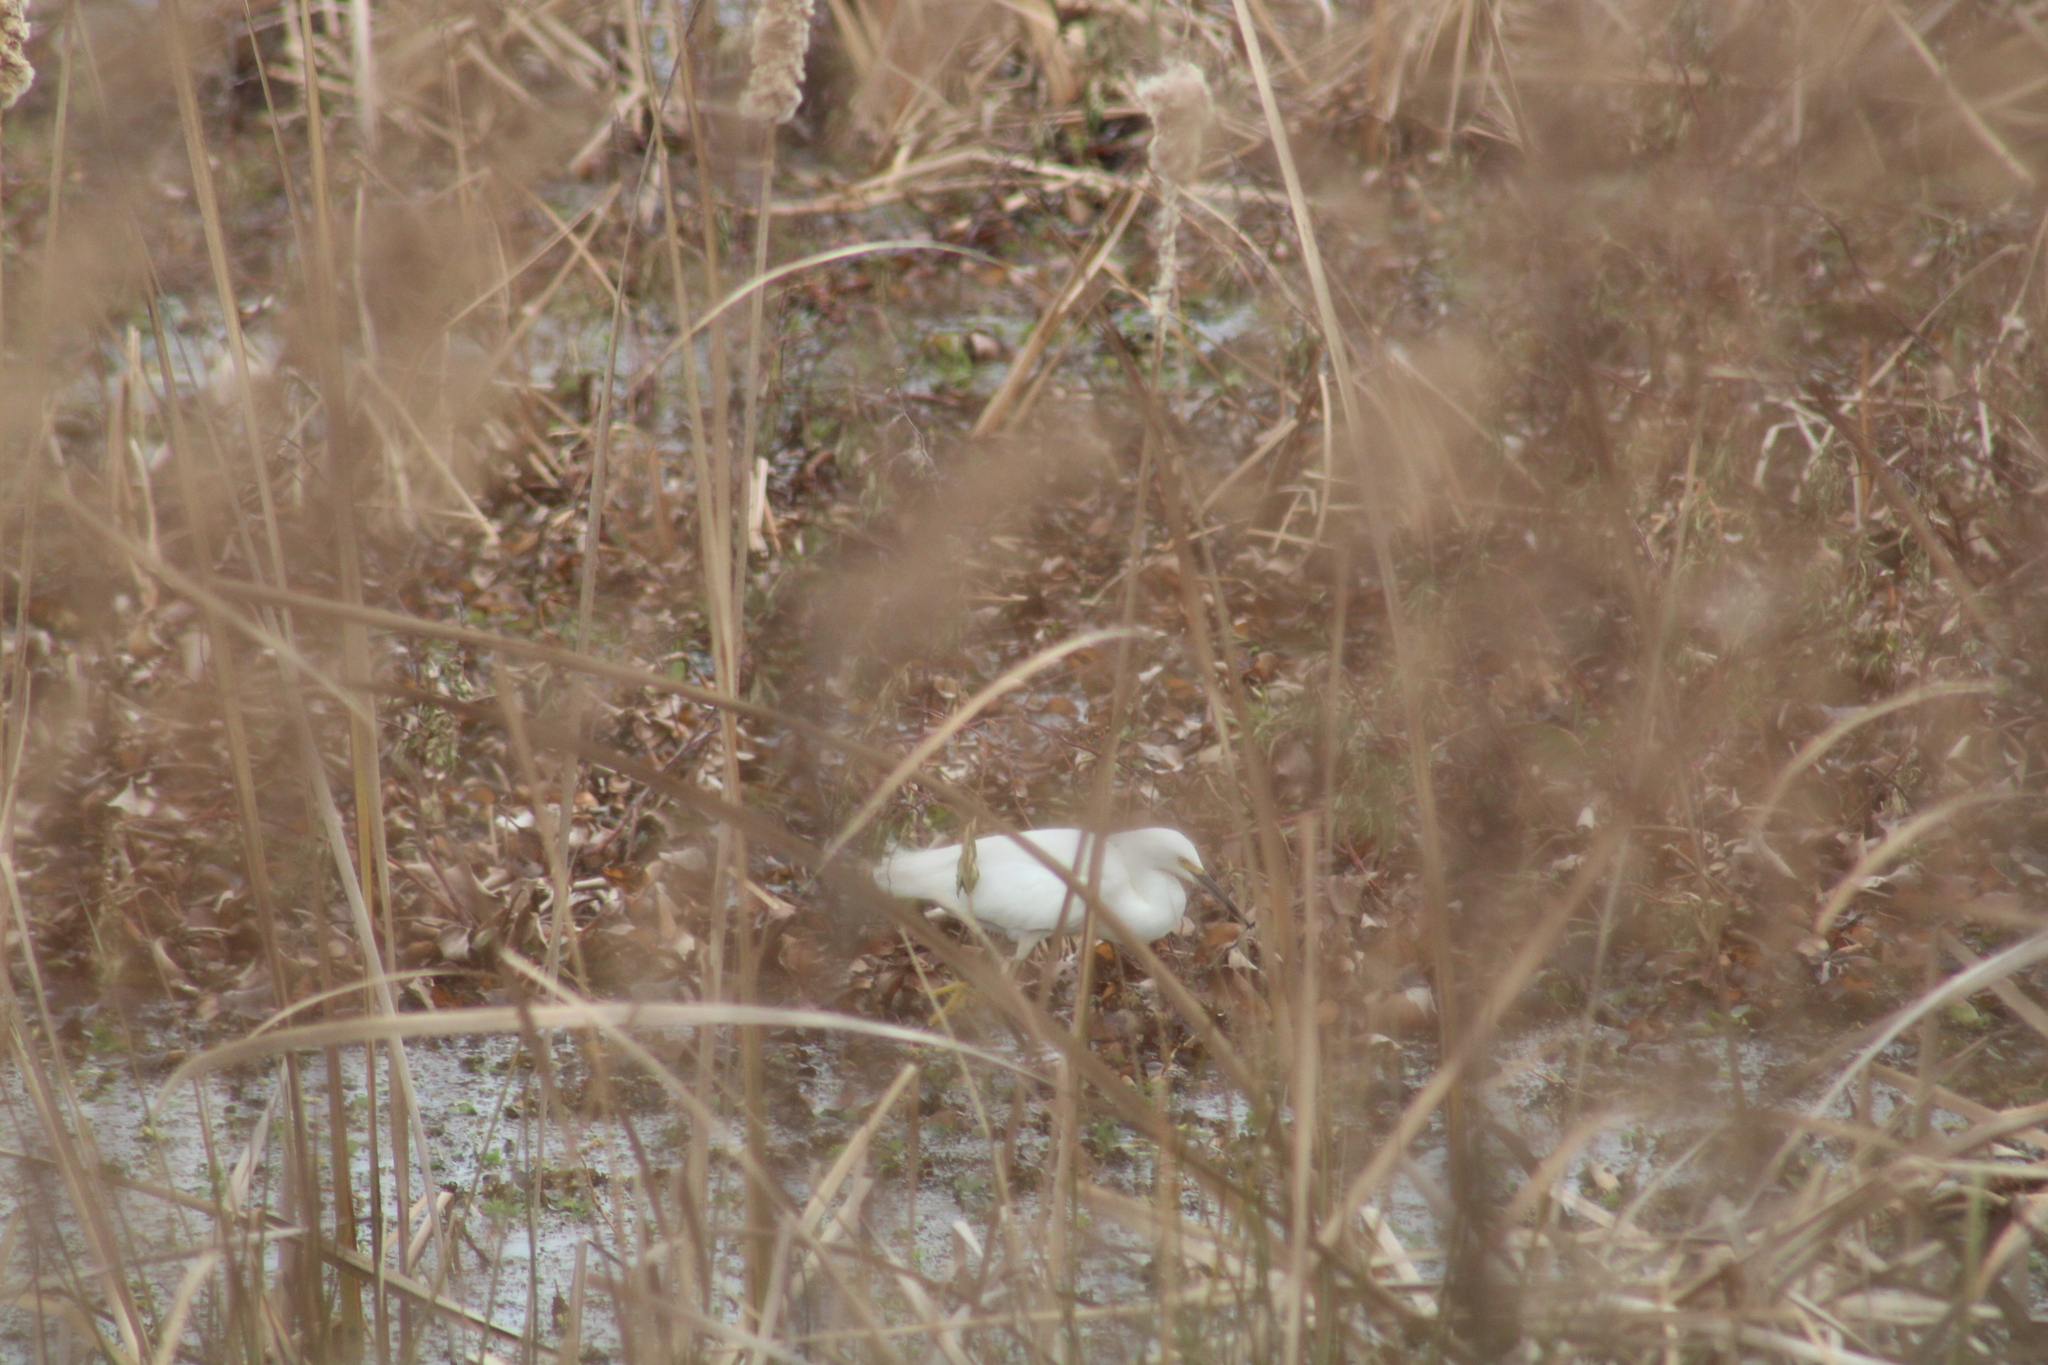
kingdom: Animalia
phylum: Chordata
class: Aves
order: Pelecaniformes
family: Ardeidae
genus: Egretta
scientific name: Egretta thula
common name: Snowy egret
